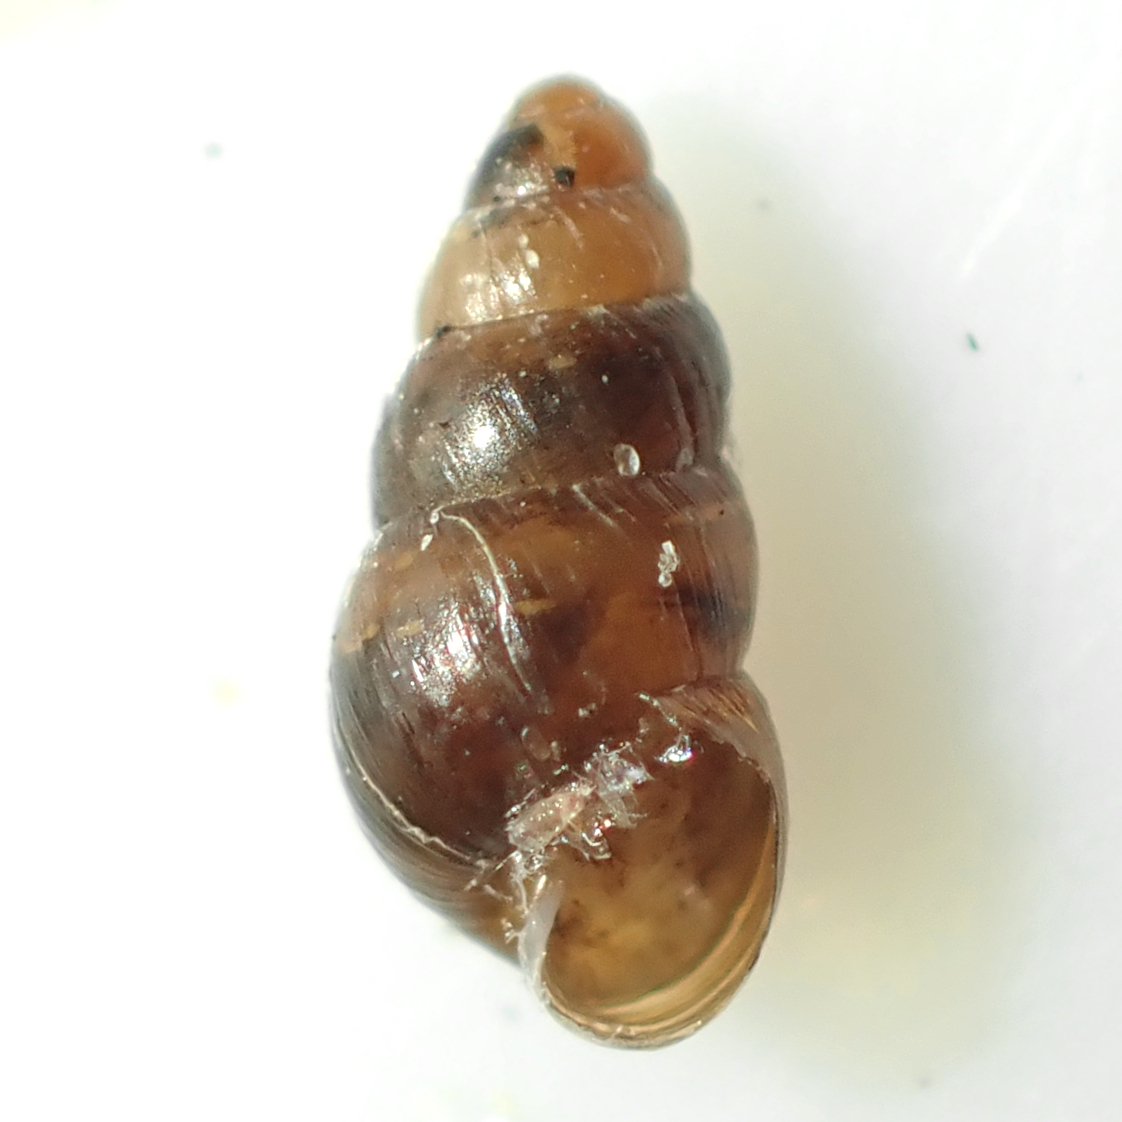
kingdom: Animalia
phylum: Mollusca
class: Gastropoda
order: Stylommatophora
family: Achatinellidae
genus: Tornatellinops
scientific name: Tornatellinops novoseelandicus
